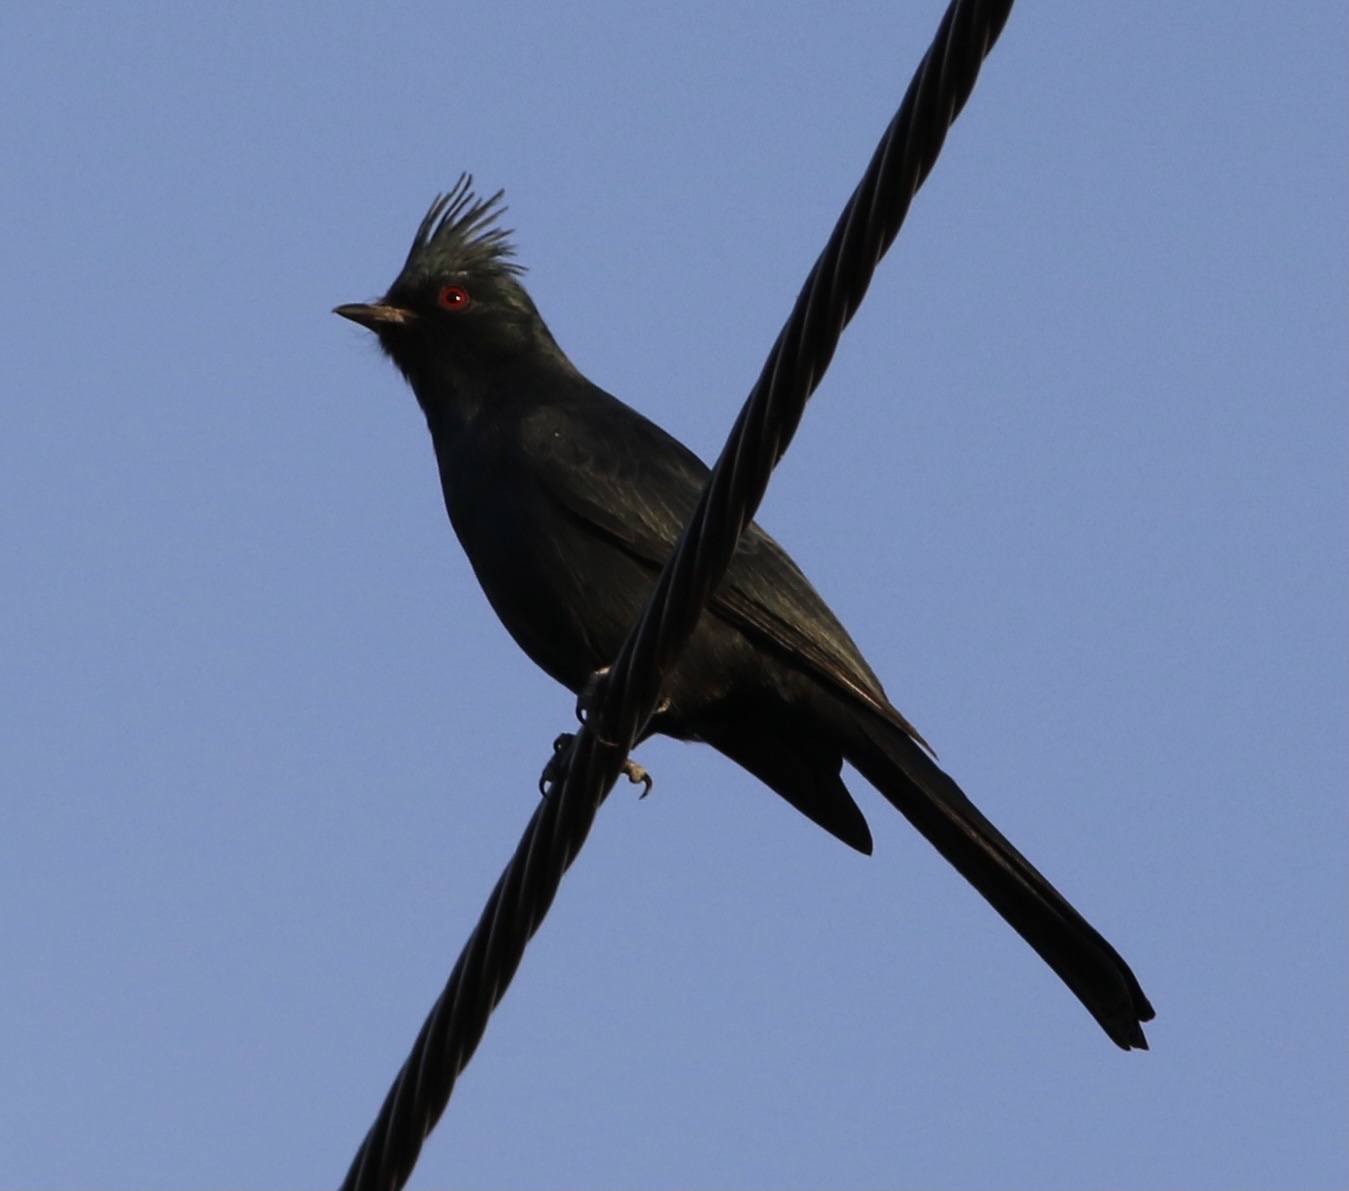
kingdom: Animalia
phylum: Chordata
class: Aves
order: Passeriformes
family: Ptilogonatidae
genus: Phainopepla
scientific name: Phainopepla nitens
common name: Phainopepla
